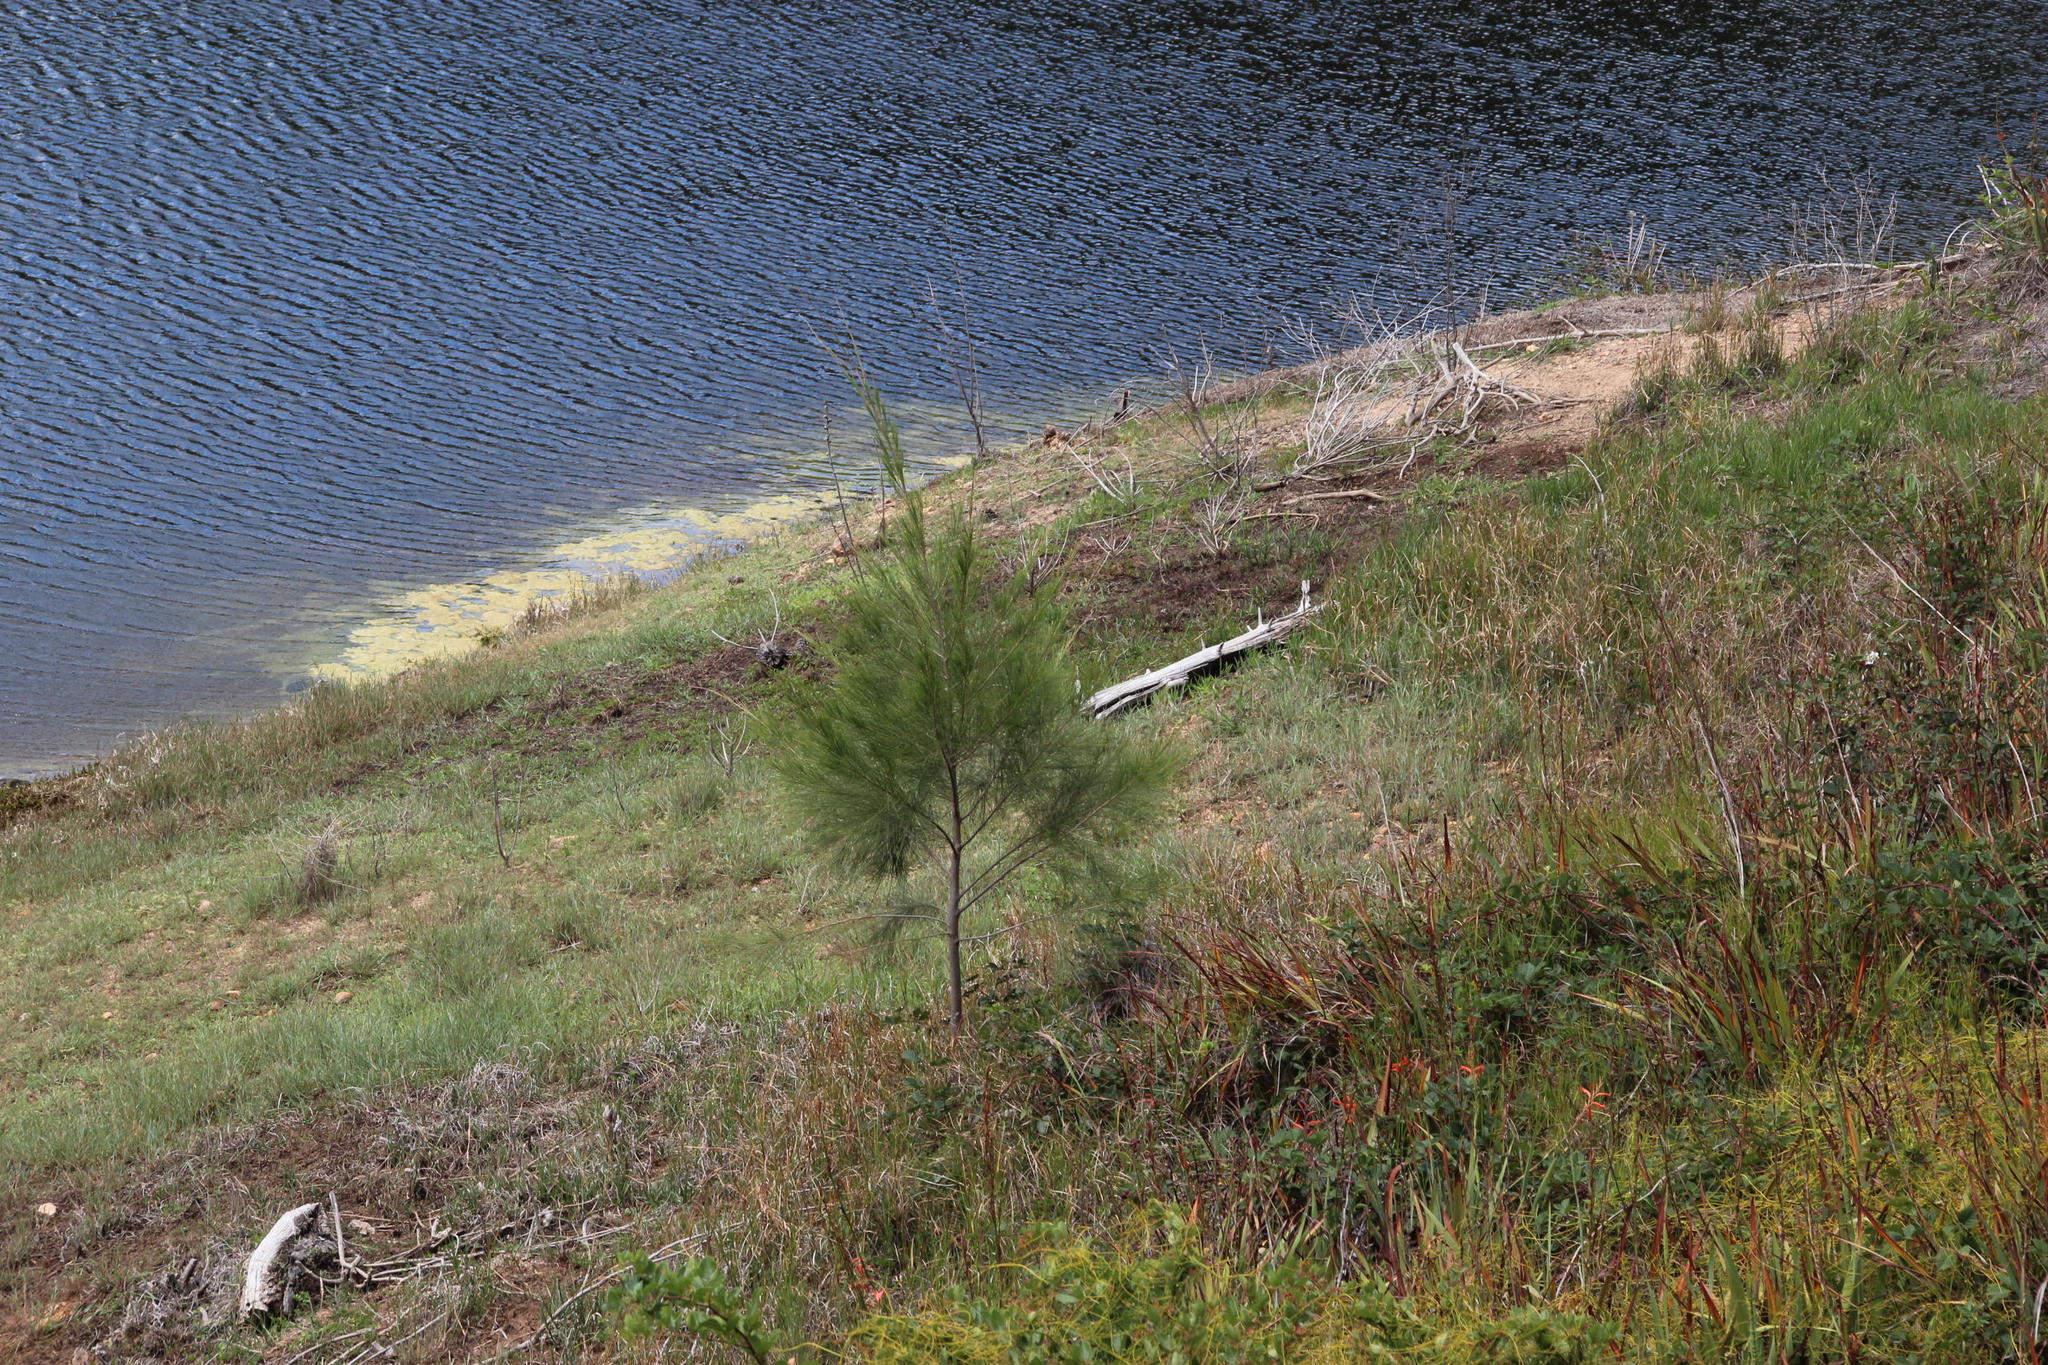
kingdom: Plantae
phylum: Tracheophyta
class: Magnoliopsida
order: Fagales
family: Casuarinaceae
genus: Casuarina
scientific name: Casuarina cunninghamiana
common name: River sheoak
